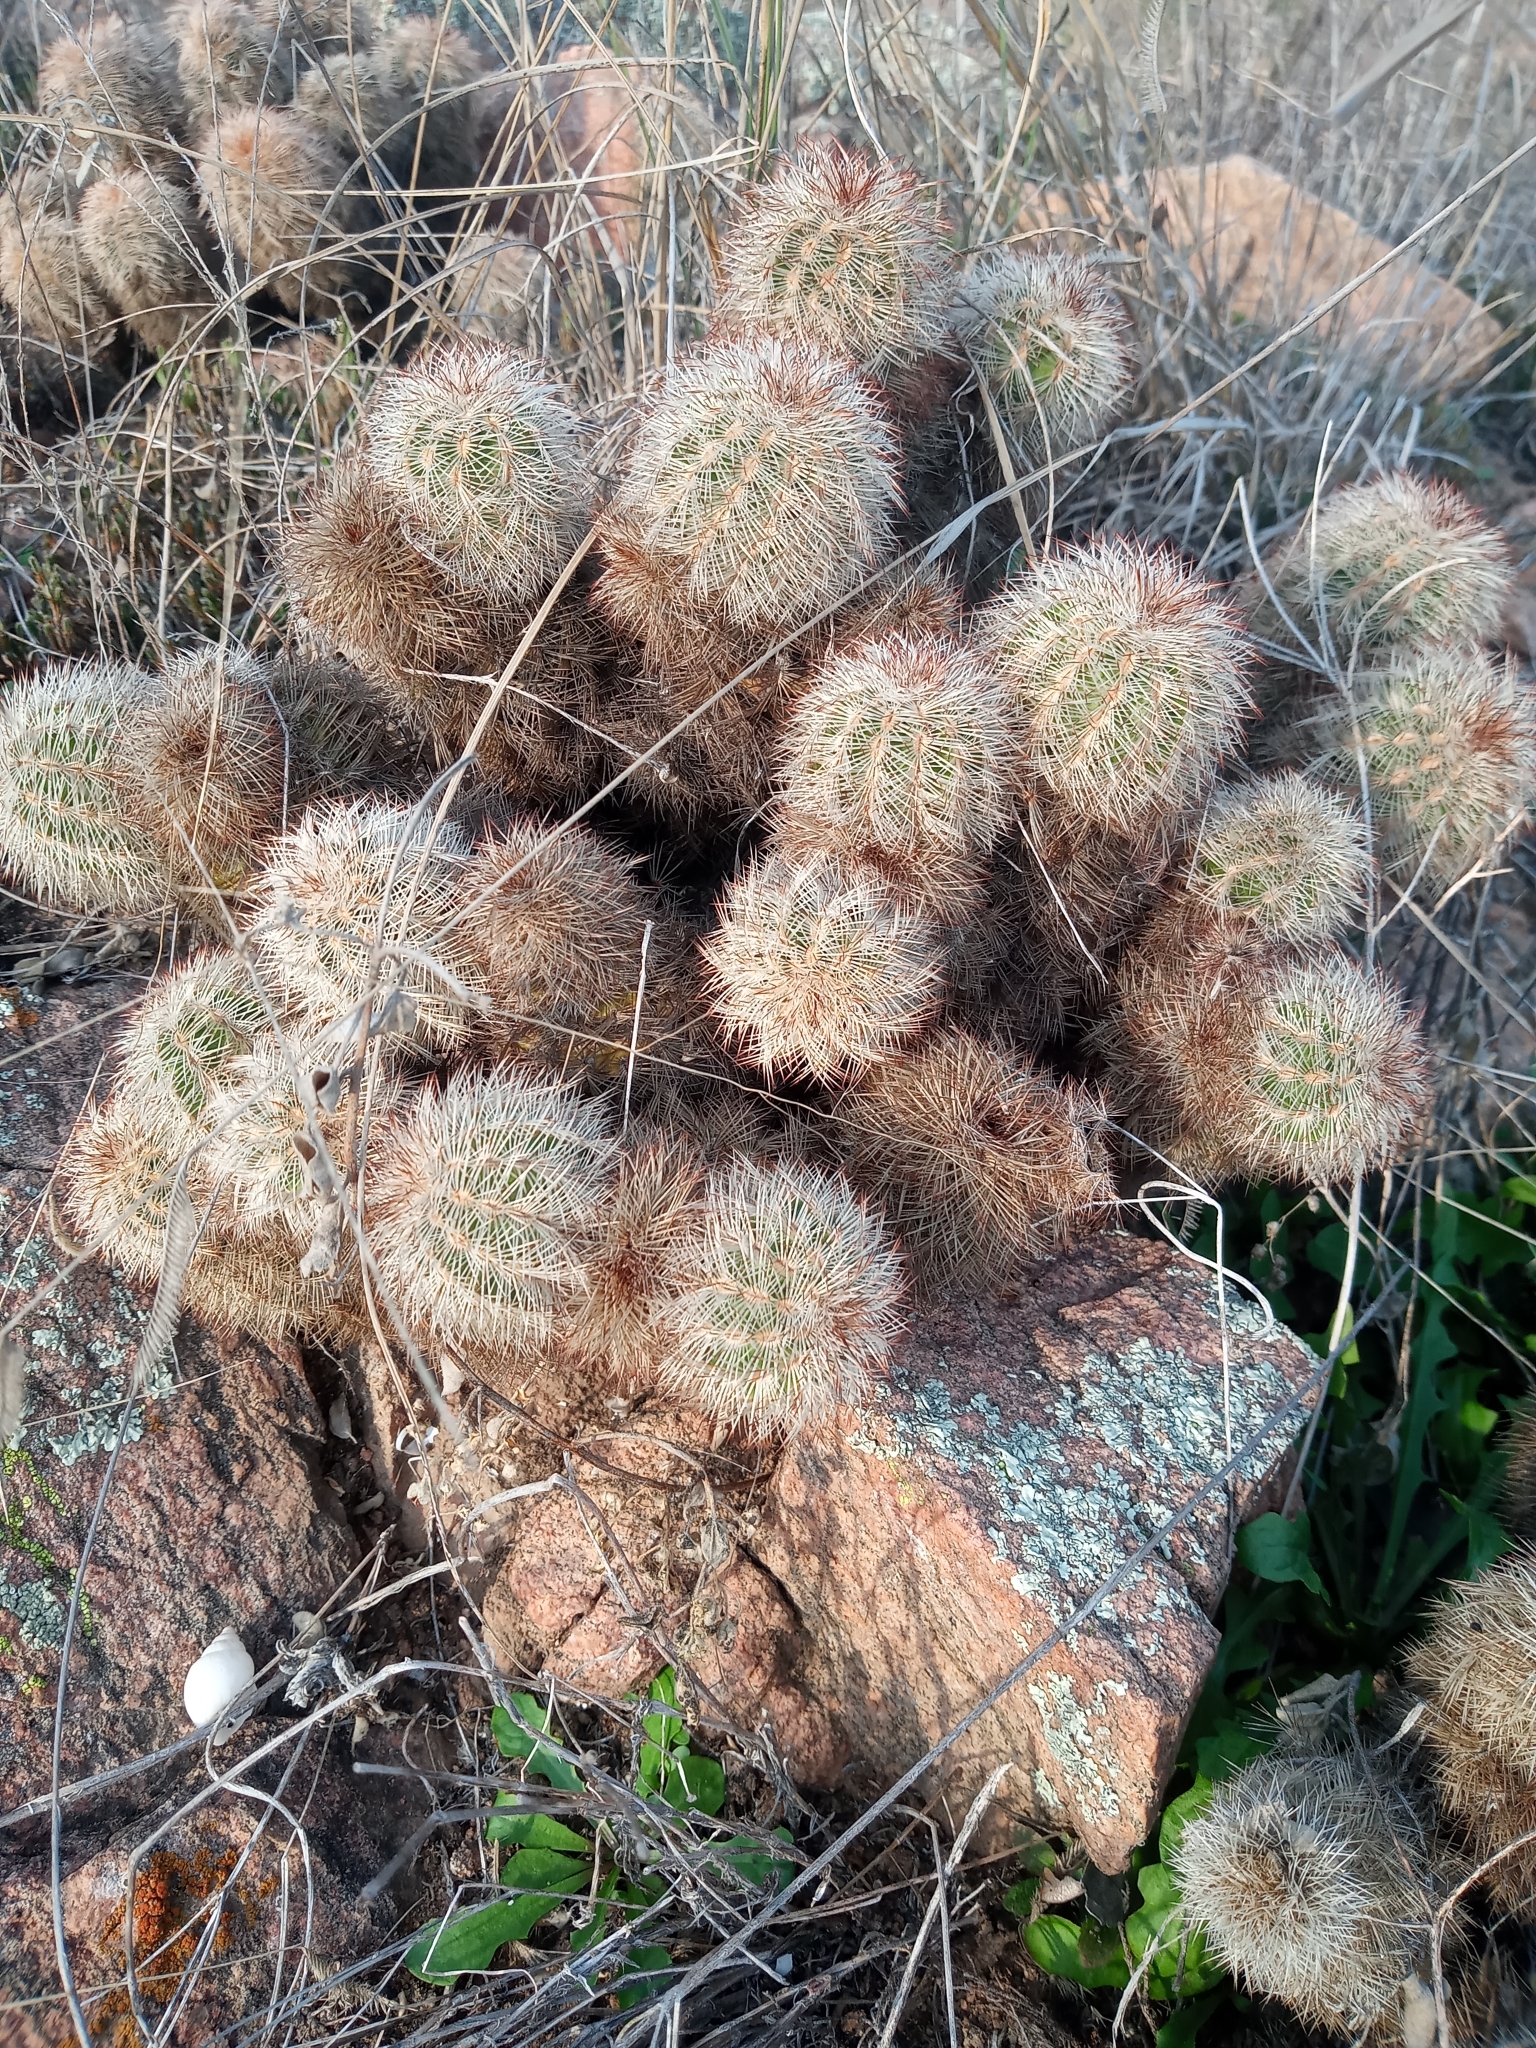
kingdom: Plantae
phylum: Tracheophyta
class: Magnoliopsida
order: Caryophyllales
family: Cactaceae
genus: Echinocereus
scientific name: Echinocereus reichenbachii
